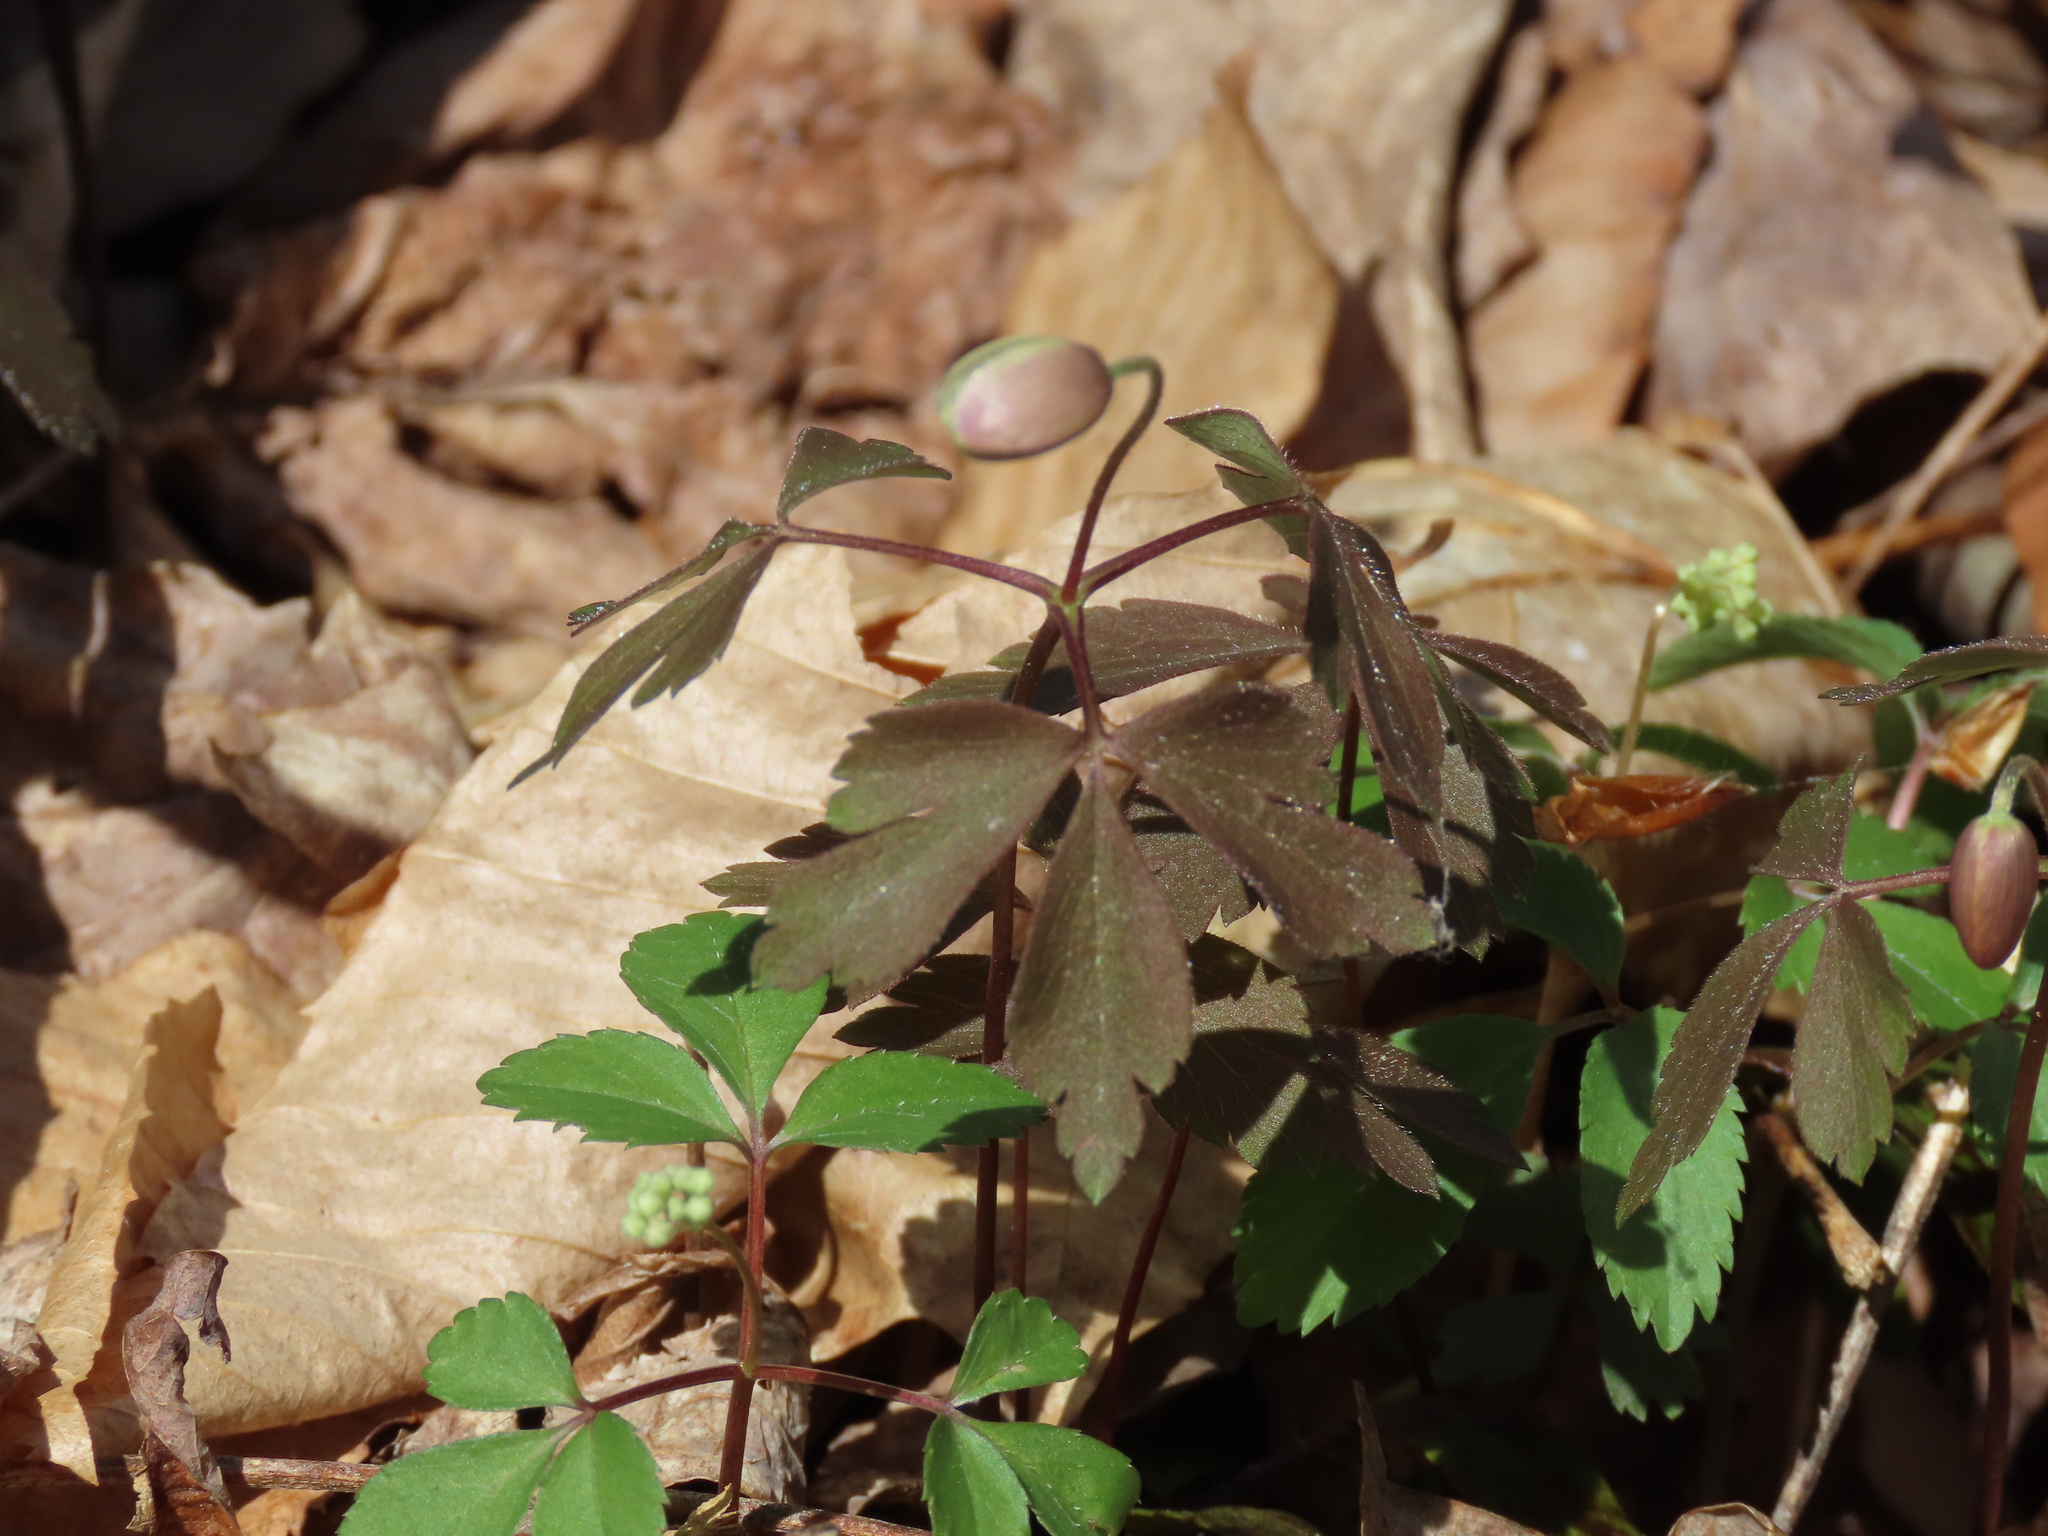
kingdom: Plantae
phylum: Tracheophyta
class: Magnoliopsida
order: Ranunculales
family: Ranunculaceae
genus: Anemone
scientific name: Anemone quinquefolia
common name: Wood anemone
